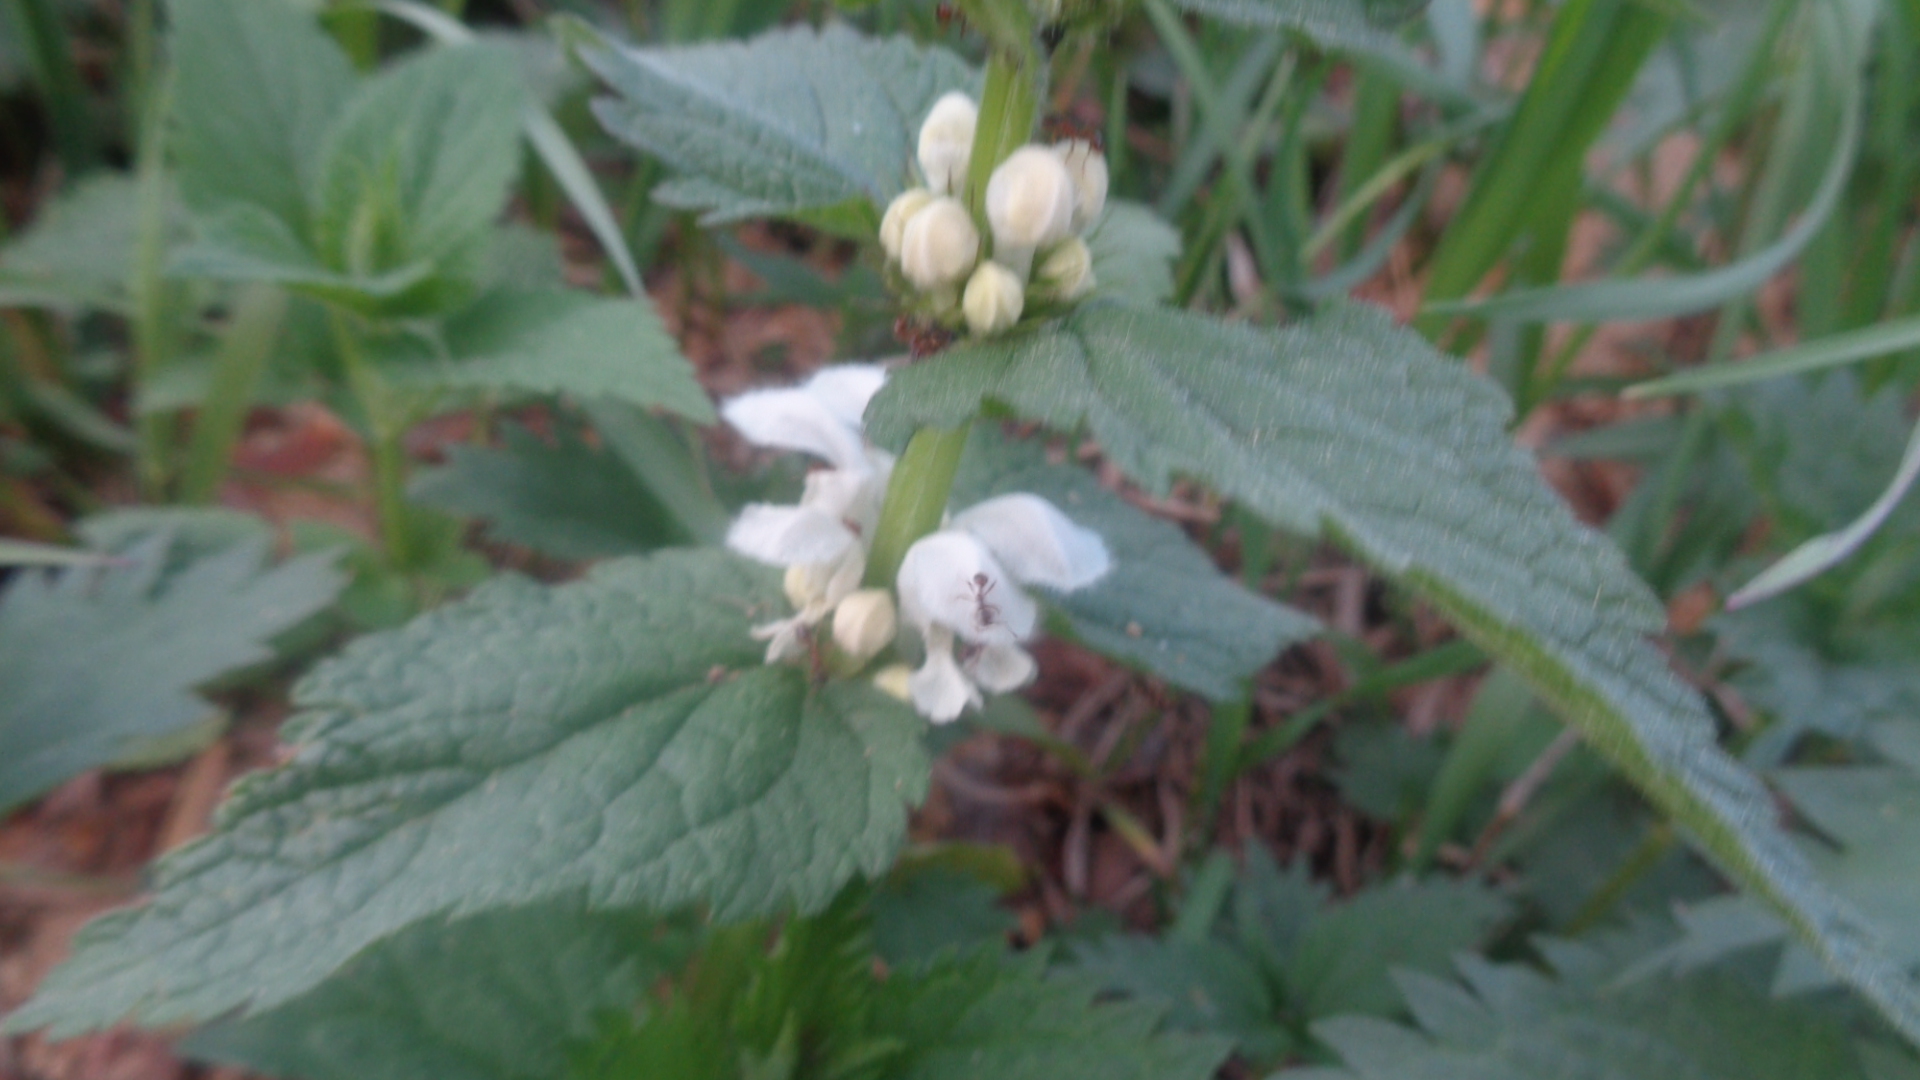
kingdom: Plantae
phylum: Tracheophyta
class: Magnoliopsida
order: Lamiales
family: Lamiaceae
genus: Lamium
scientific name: Lamium album
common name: White dead-nettle
